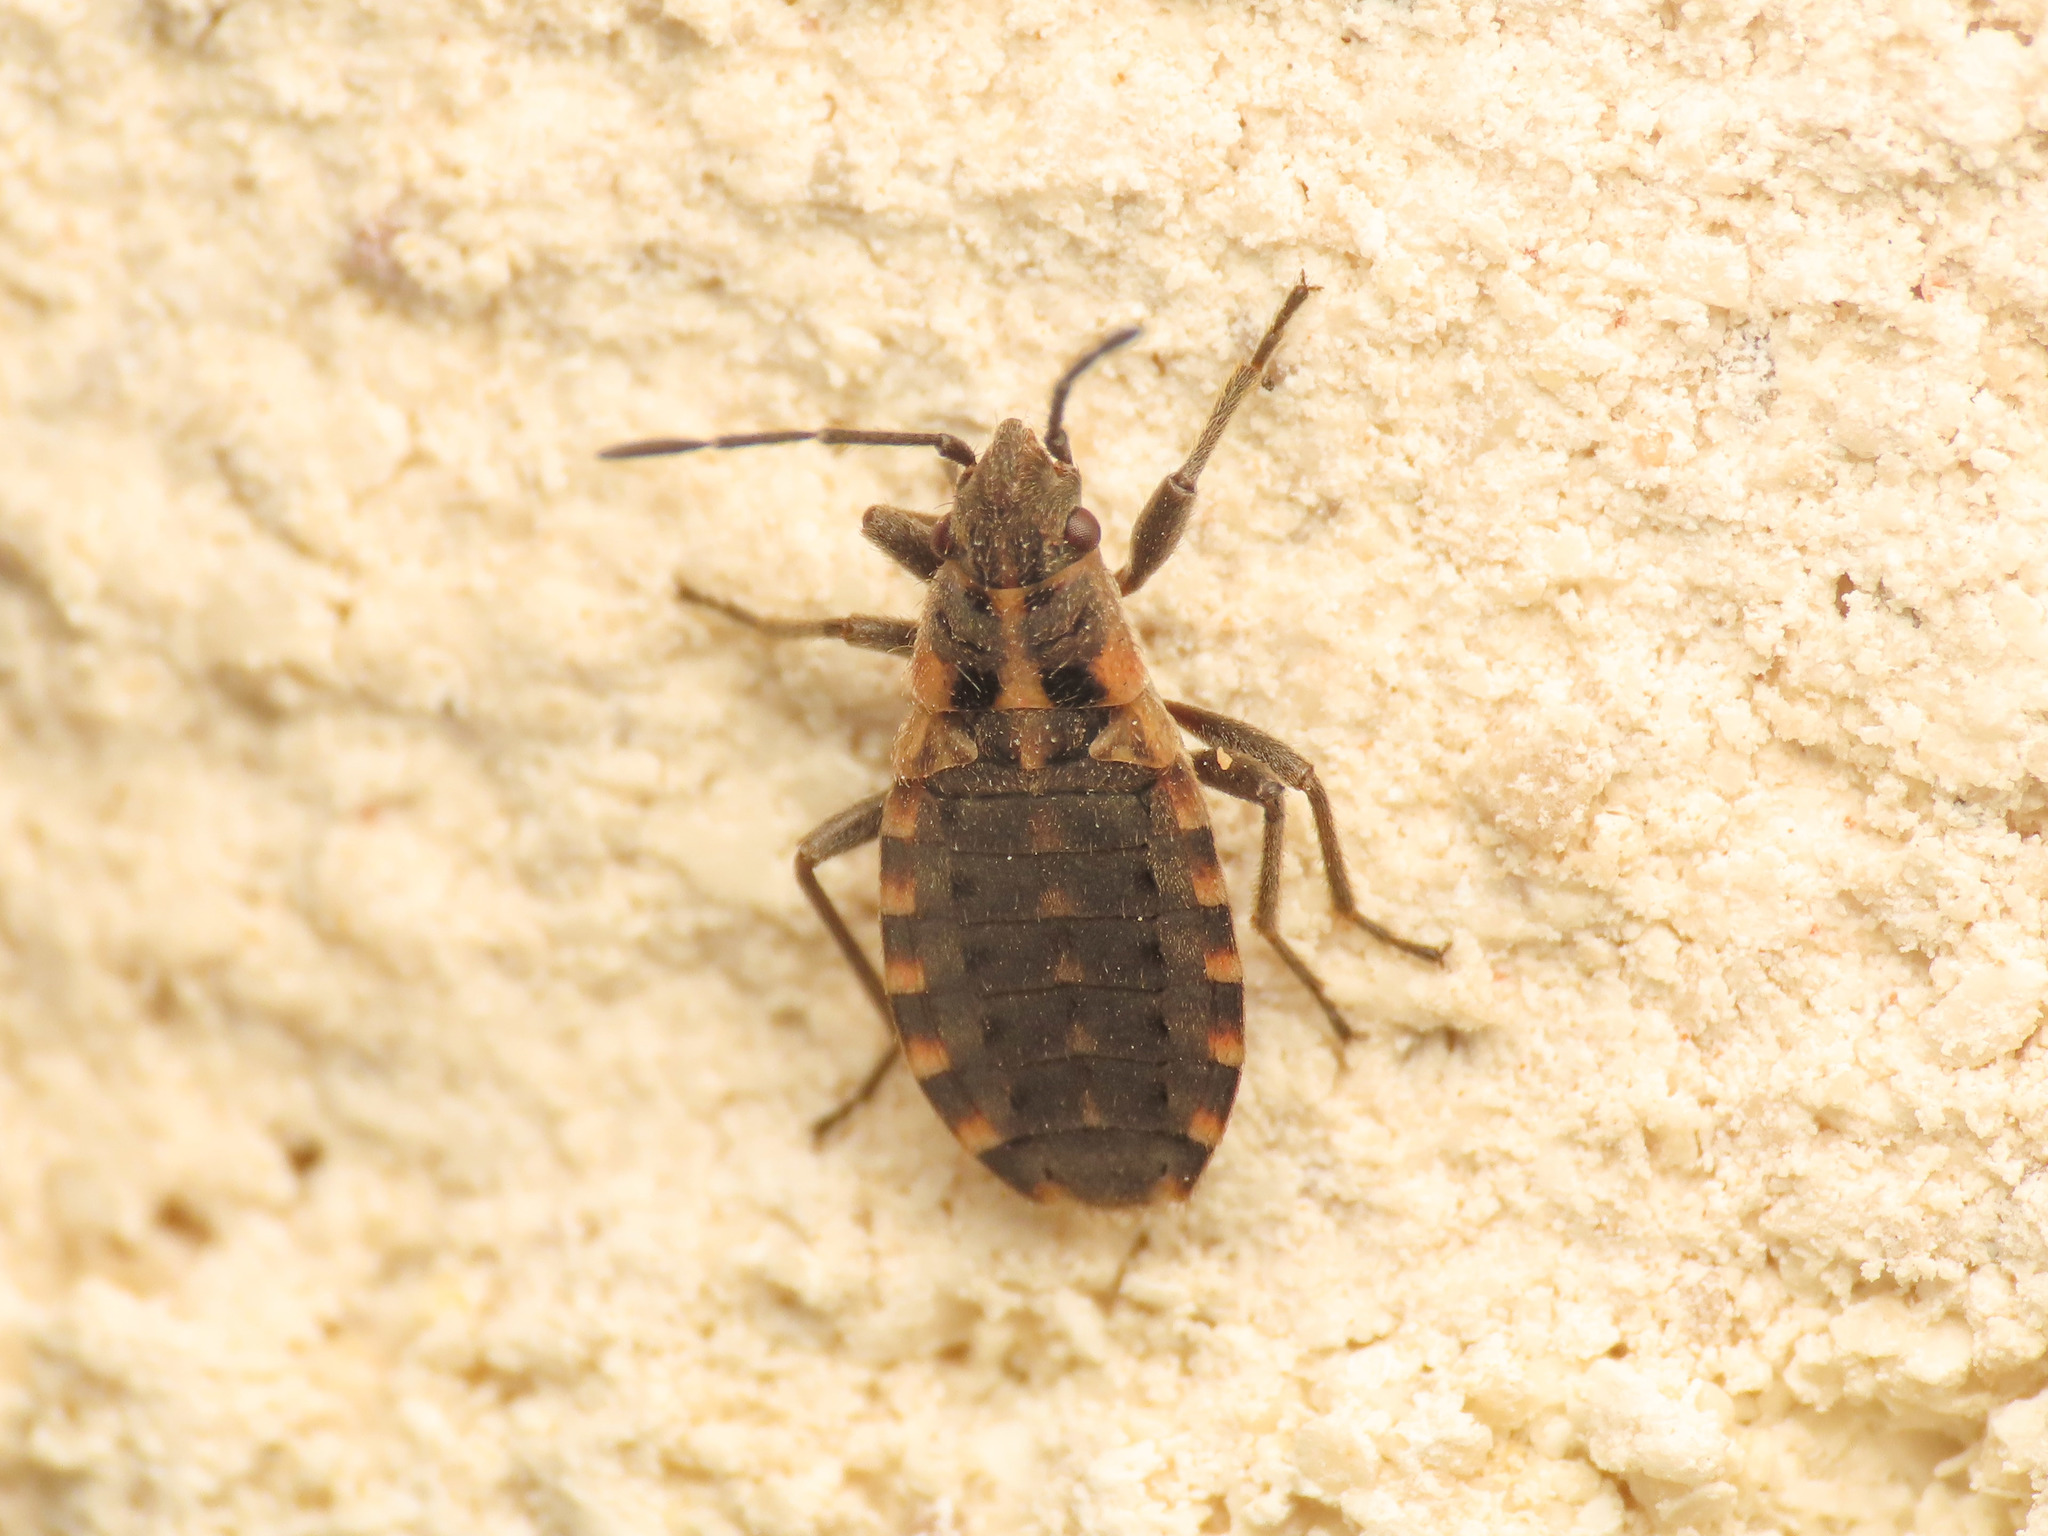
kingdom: Animalia
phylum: Arthropoda
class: Insecta
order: Hemiptera
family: Lygaeidae
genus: Apterola
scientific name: Apterola kunckeli
